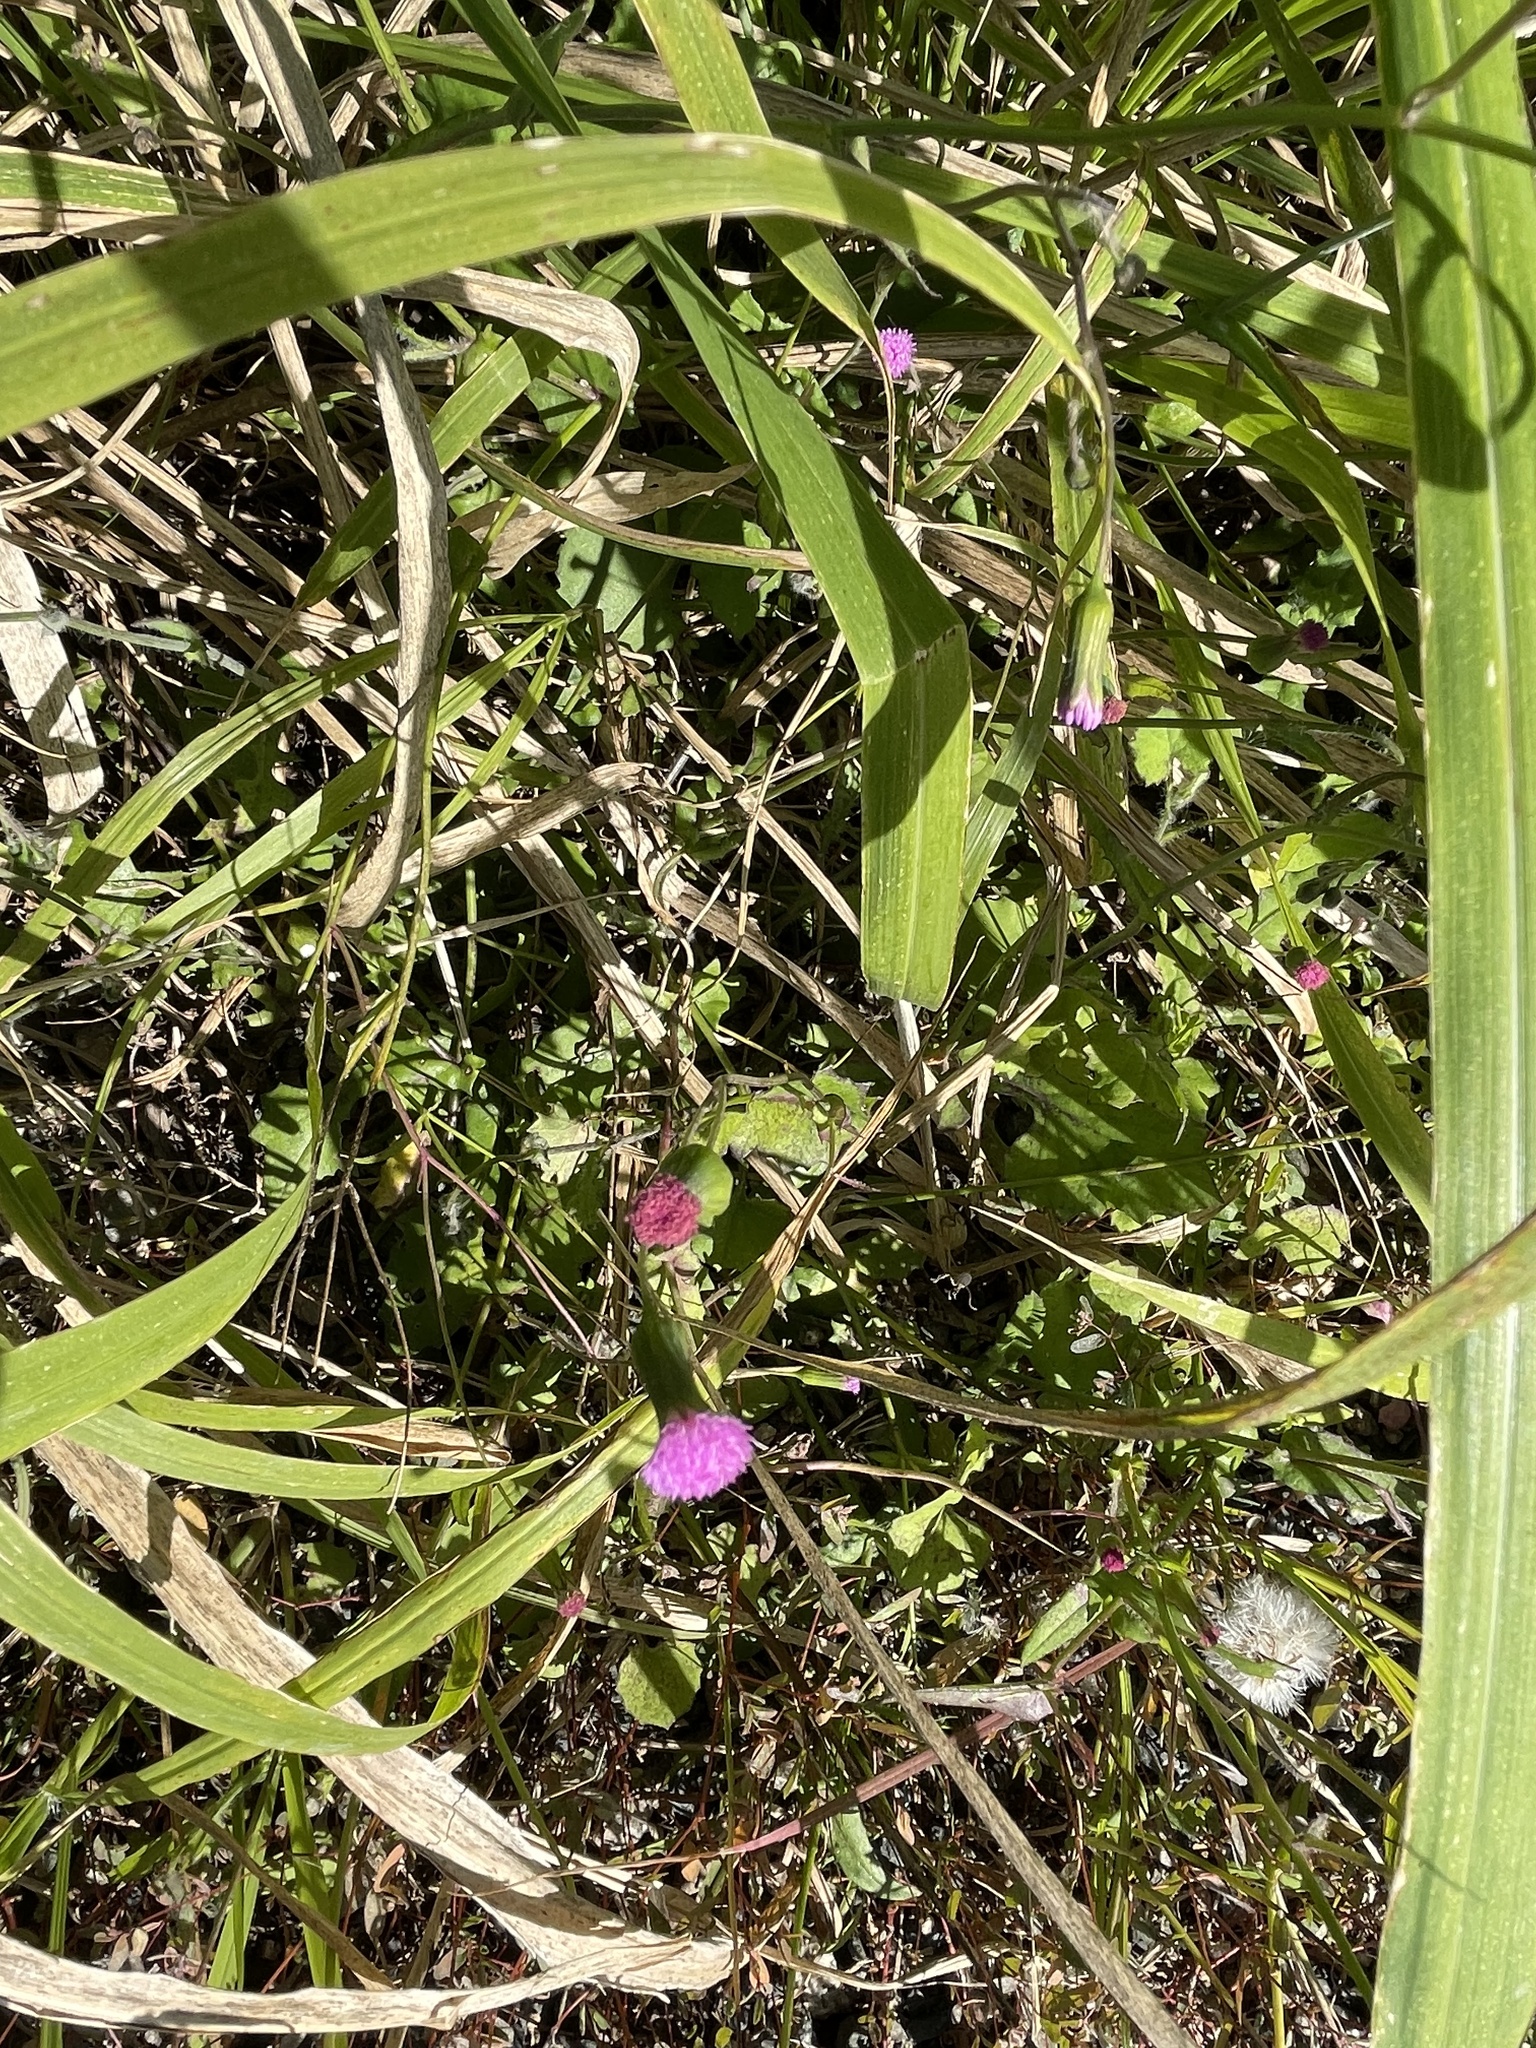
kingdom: Plantae
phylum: Tracheophyta
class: Magnoliopsida
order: Asterales
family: Asteraceae
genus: Emilia
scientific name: Emilia javanica
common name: Tassel-flower
